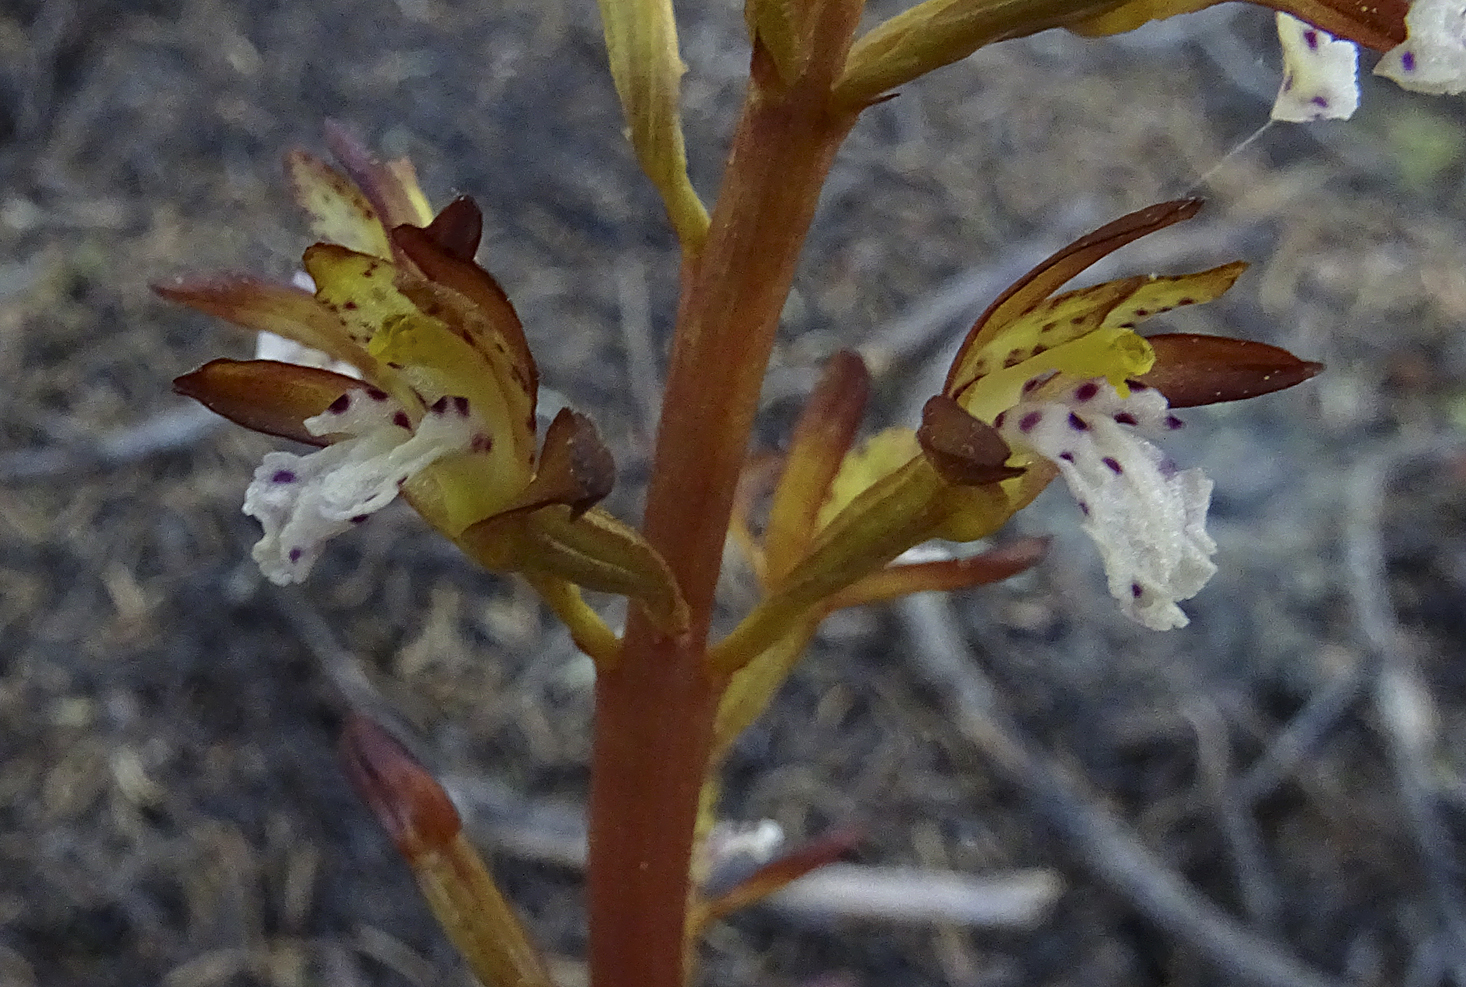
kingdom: Plantae
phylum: Tracheophyta
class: Liliopsida
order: Asparagales
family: Orchidaceae
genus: Corallorhiza
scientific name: Corallorhiza maculata
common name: Spotted coralroot
